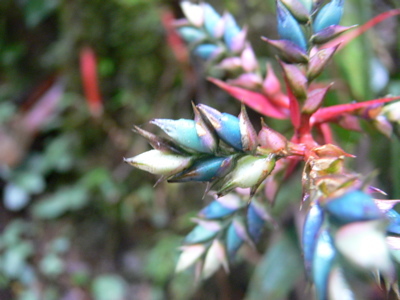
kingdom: Plantae
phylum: Tracheophyta
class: Liliopsida
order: Poales
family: Bromeliaceae
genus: Aechmea
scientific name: Aechmea pubescens
